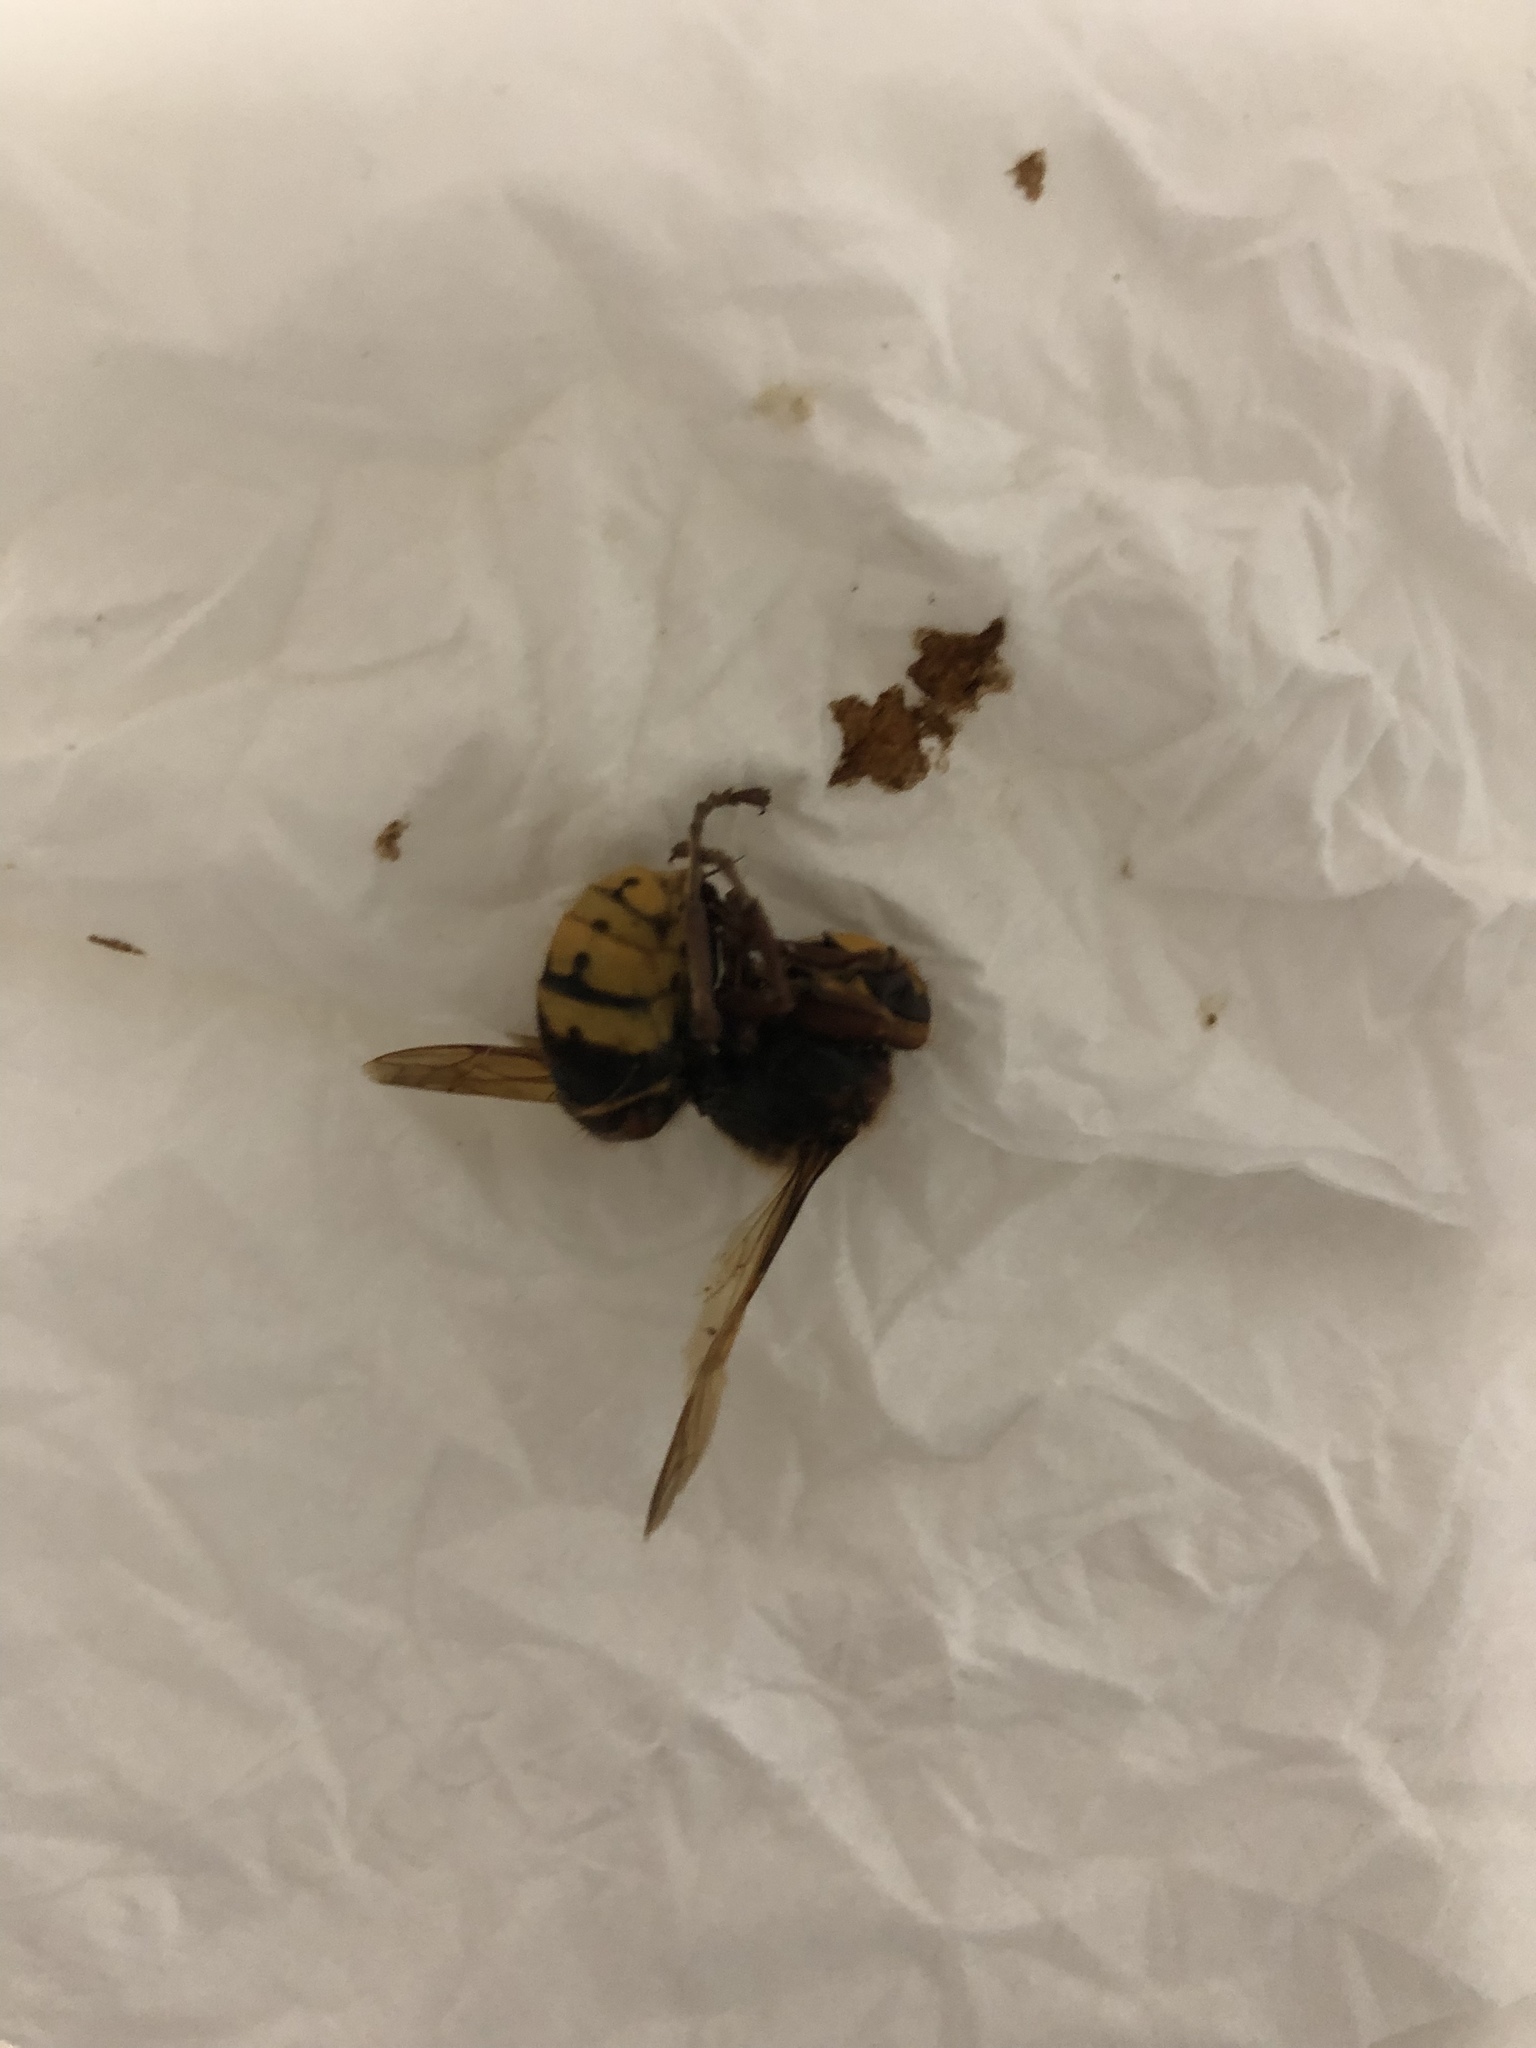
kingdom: Animalia
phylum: Arthropoda
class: Insecta
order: Hymenoptera
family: Vespidae
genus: Vespa
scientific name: Vespa crabro
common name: Hornet
